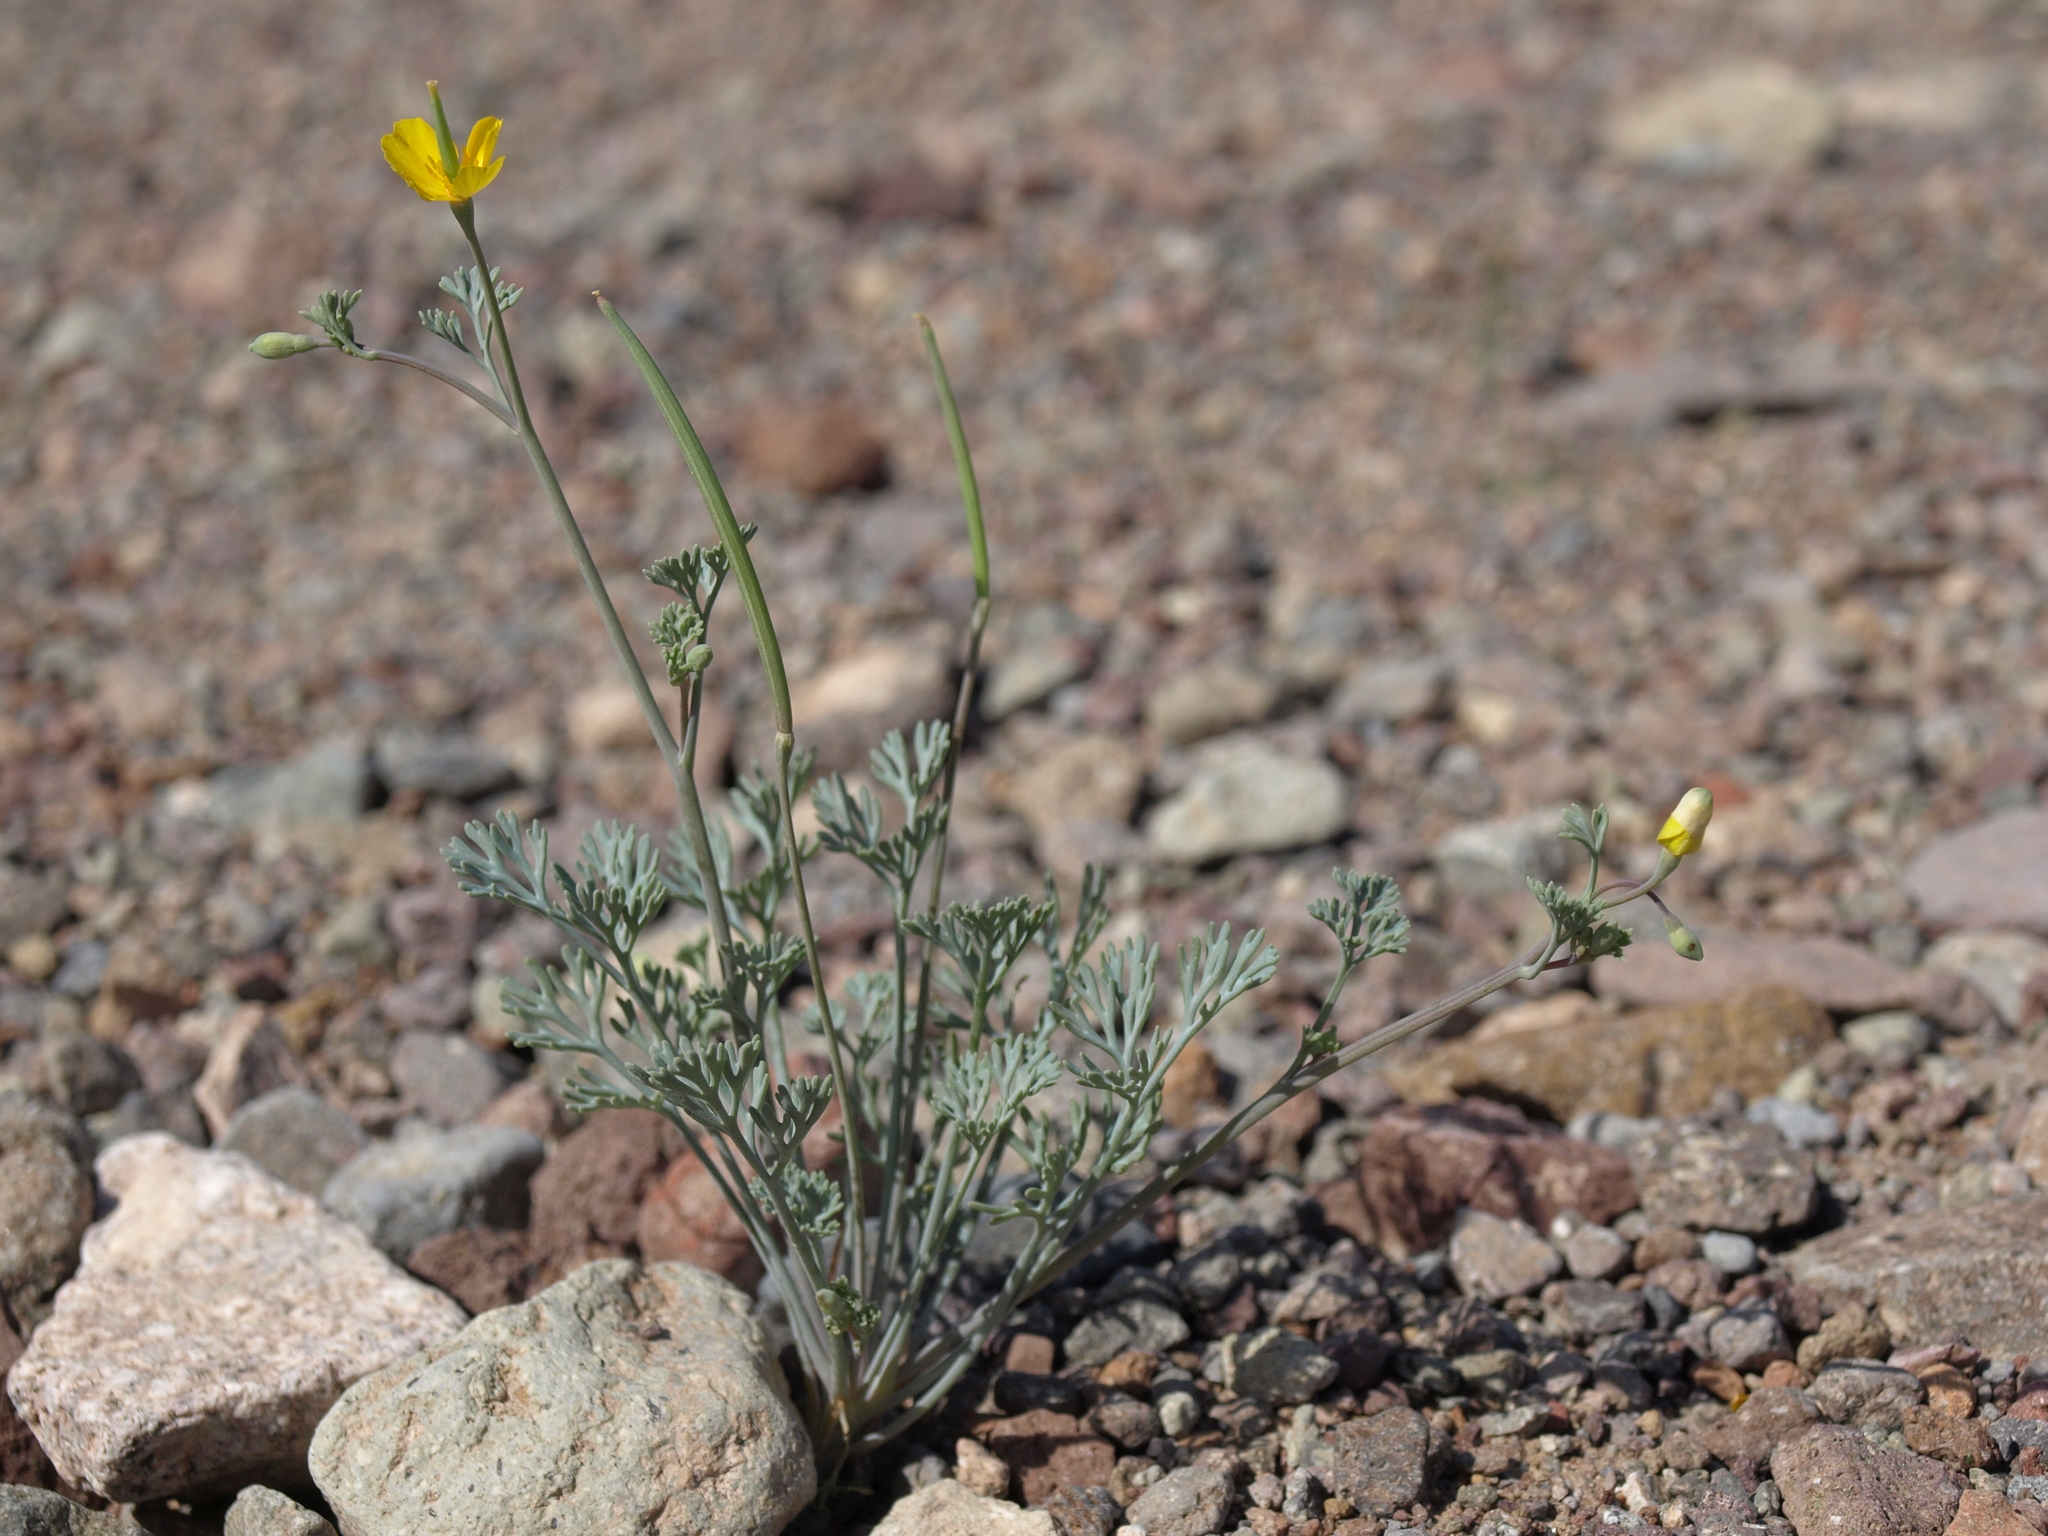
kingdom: Plantae
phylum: Tracheophyta
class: Magnoliopsida
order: Ranunculales
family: Papaveraceae
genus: Eschscholzia
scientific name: Eschscholzia minutiflora
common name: Small-flower california-poppy
